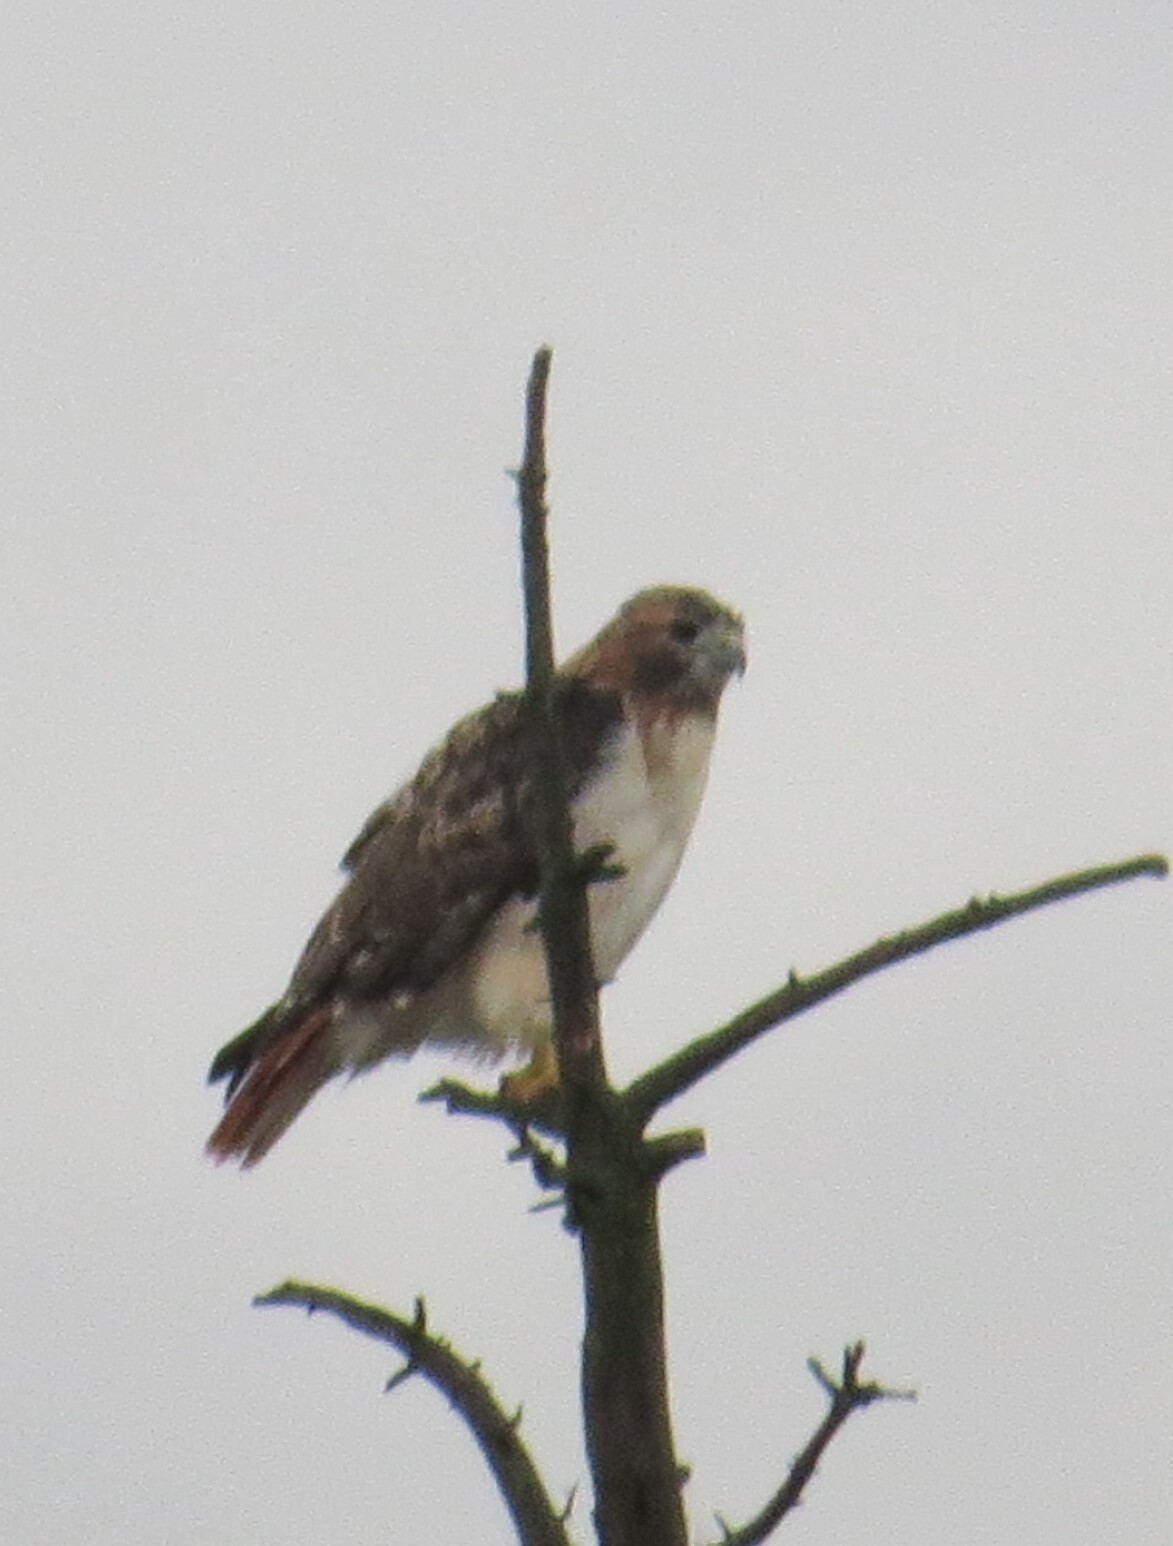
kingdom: Animalia
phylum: Chordata
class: Aves
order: Accipitriformes
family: Accipitridae
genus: Buteo
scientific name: Buteo jamaicensis
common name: Red-tailed hawk
